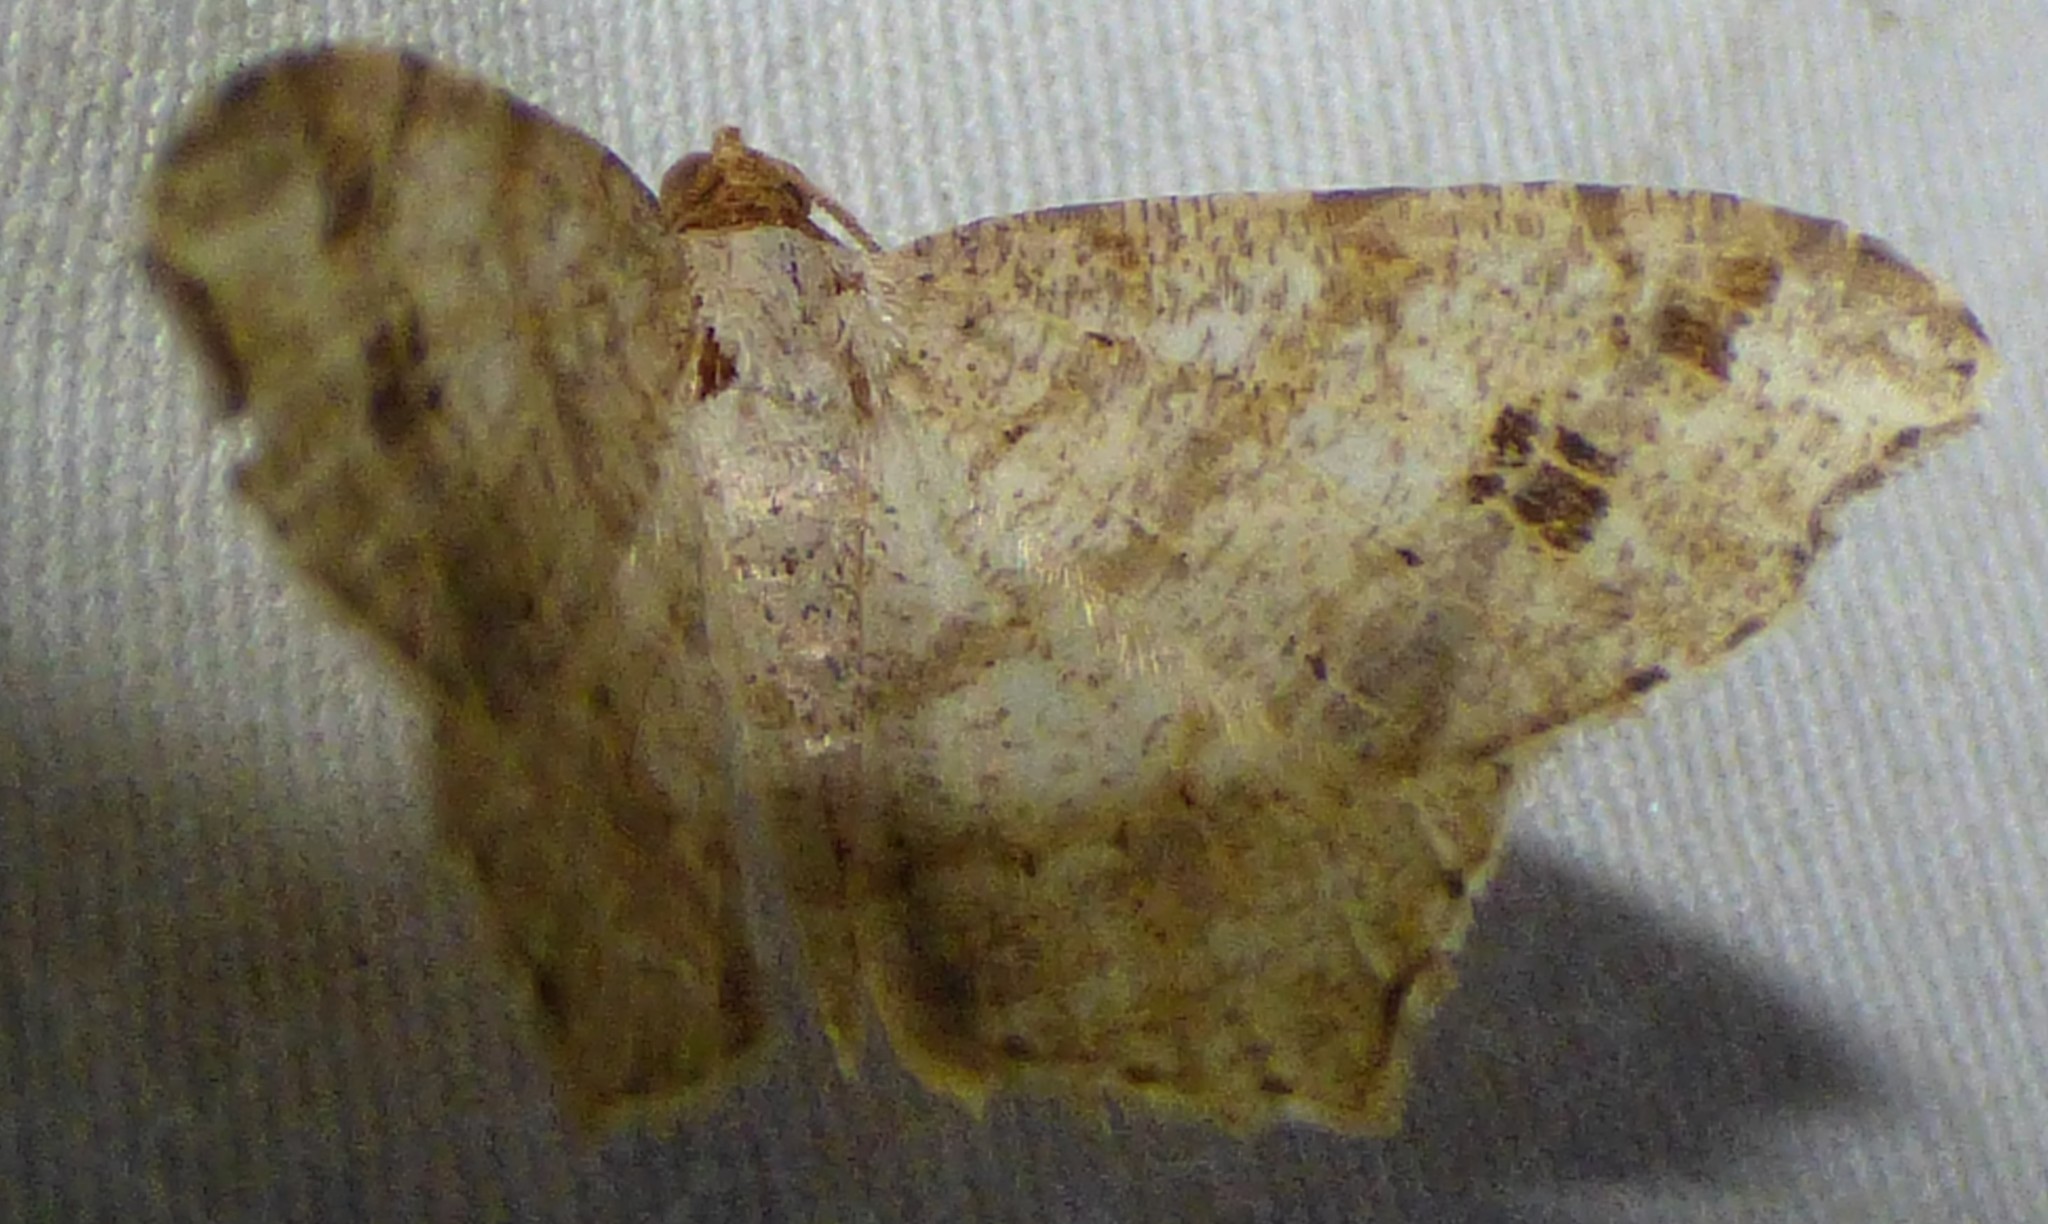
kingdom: Animalia
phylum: Arthropoda
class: Insecta
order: Lepidoptera
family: Geometridae
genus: Macaria
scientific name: Macaria aemulataria
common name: Common angle
